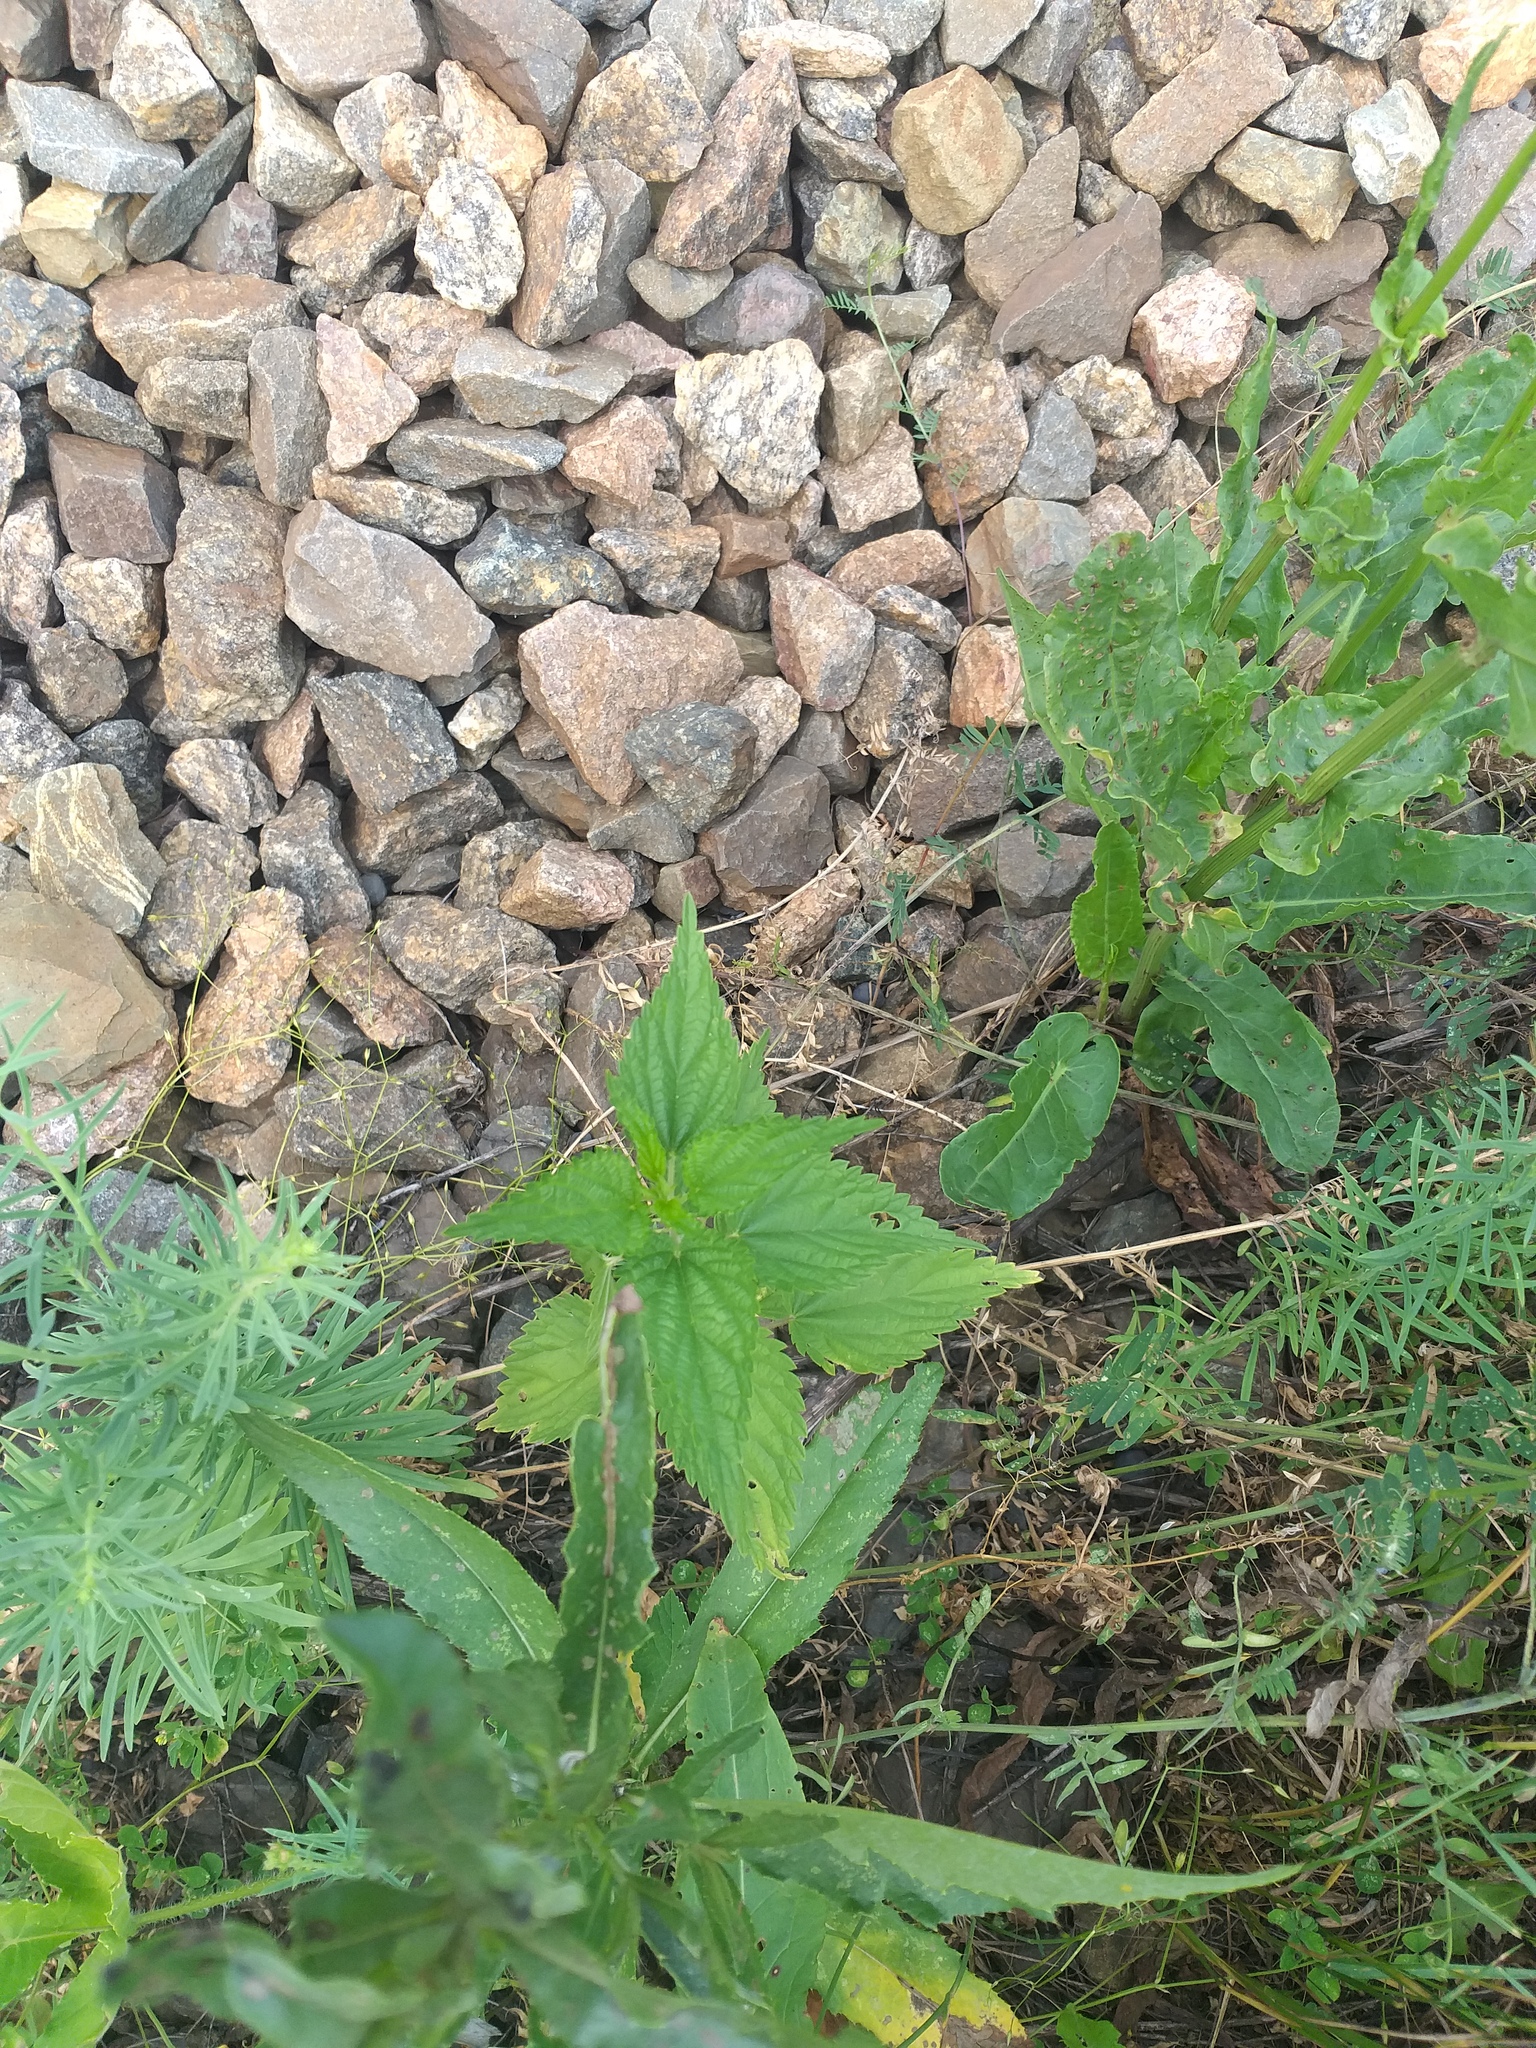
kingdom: Plantae
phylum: Tracheophyta
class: Magnoliopsida
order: Rosales
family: Urticaceae
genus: Urtica
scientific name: Urtica dioica
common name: Common nettle
